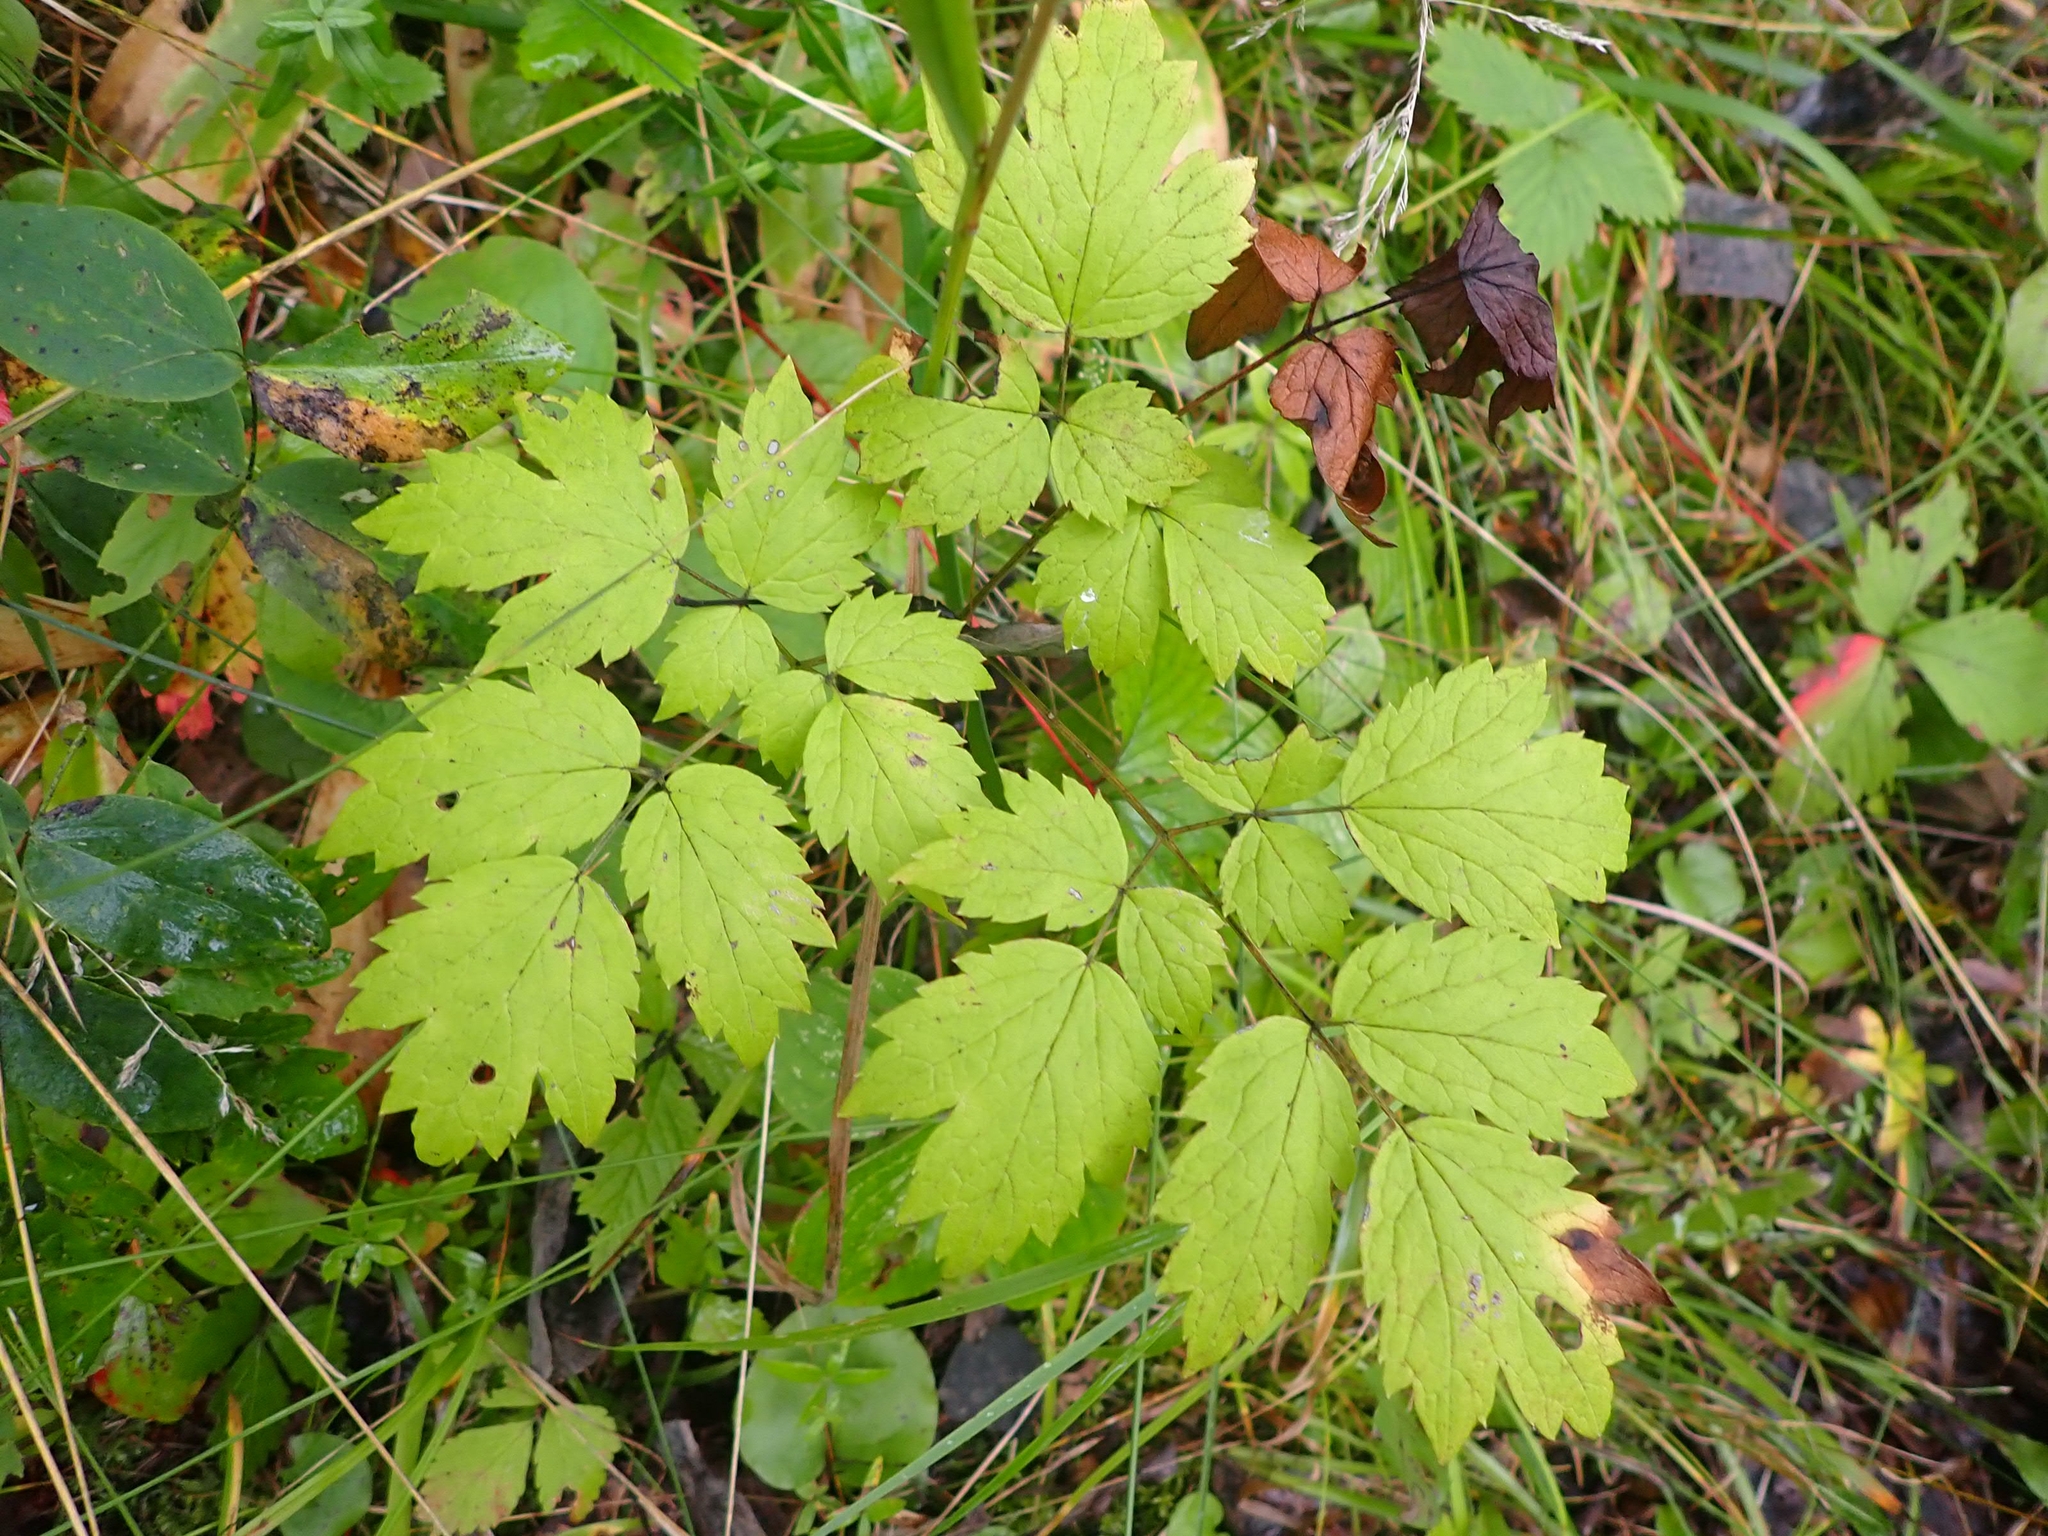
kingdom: Plantae
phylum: Tracheophyta
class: Magnoliopsida
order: Ranunculales
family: Ranunculaceae
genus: Actaea
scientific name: Actaea rubra
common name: Red baneberry
